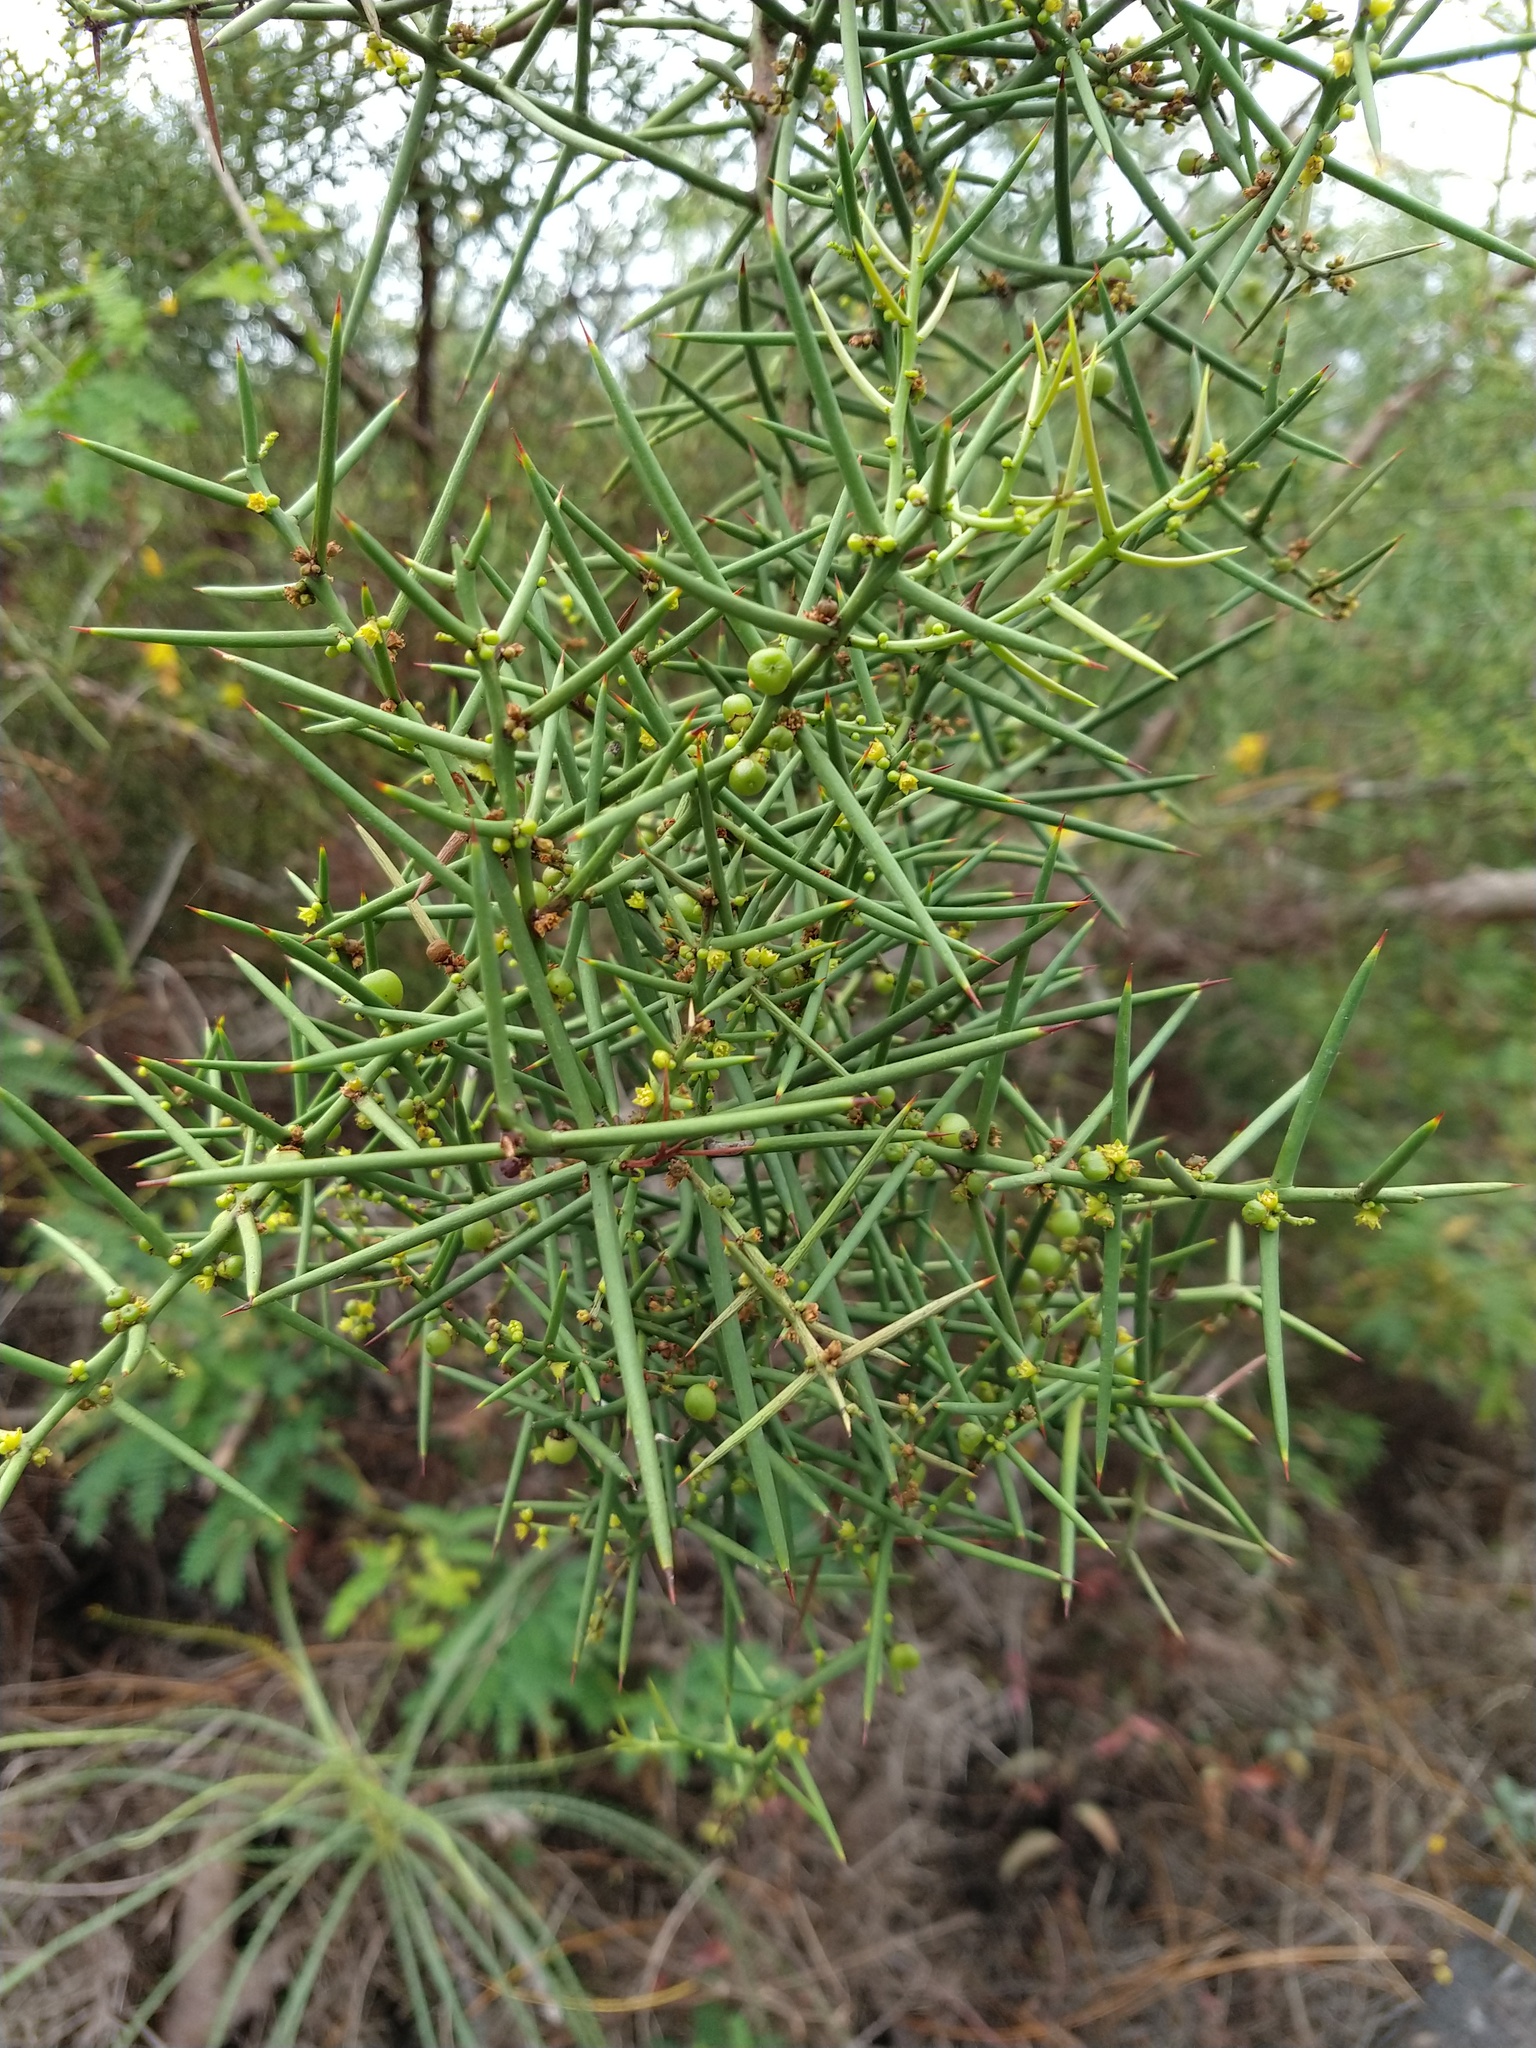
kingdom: Plantae
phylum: Tracheophyta
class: Magnoliopsida
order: Rosales
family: Rhamnaceae
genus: Scutia
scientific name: Scutia spicata
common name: Spiny bush
